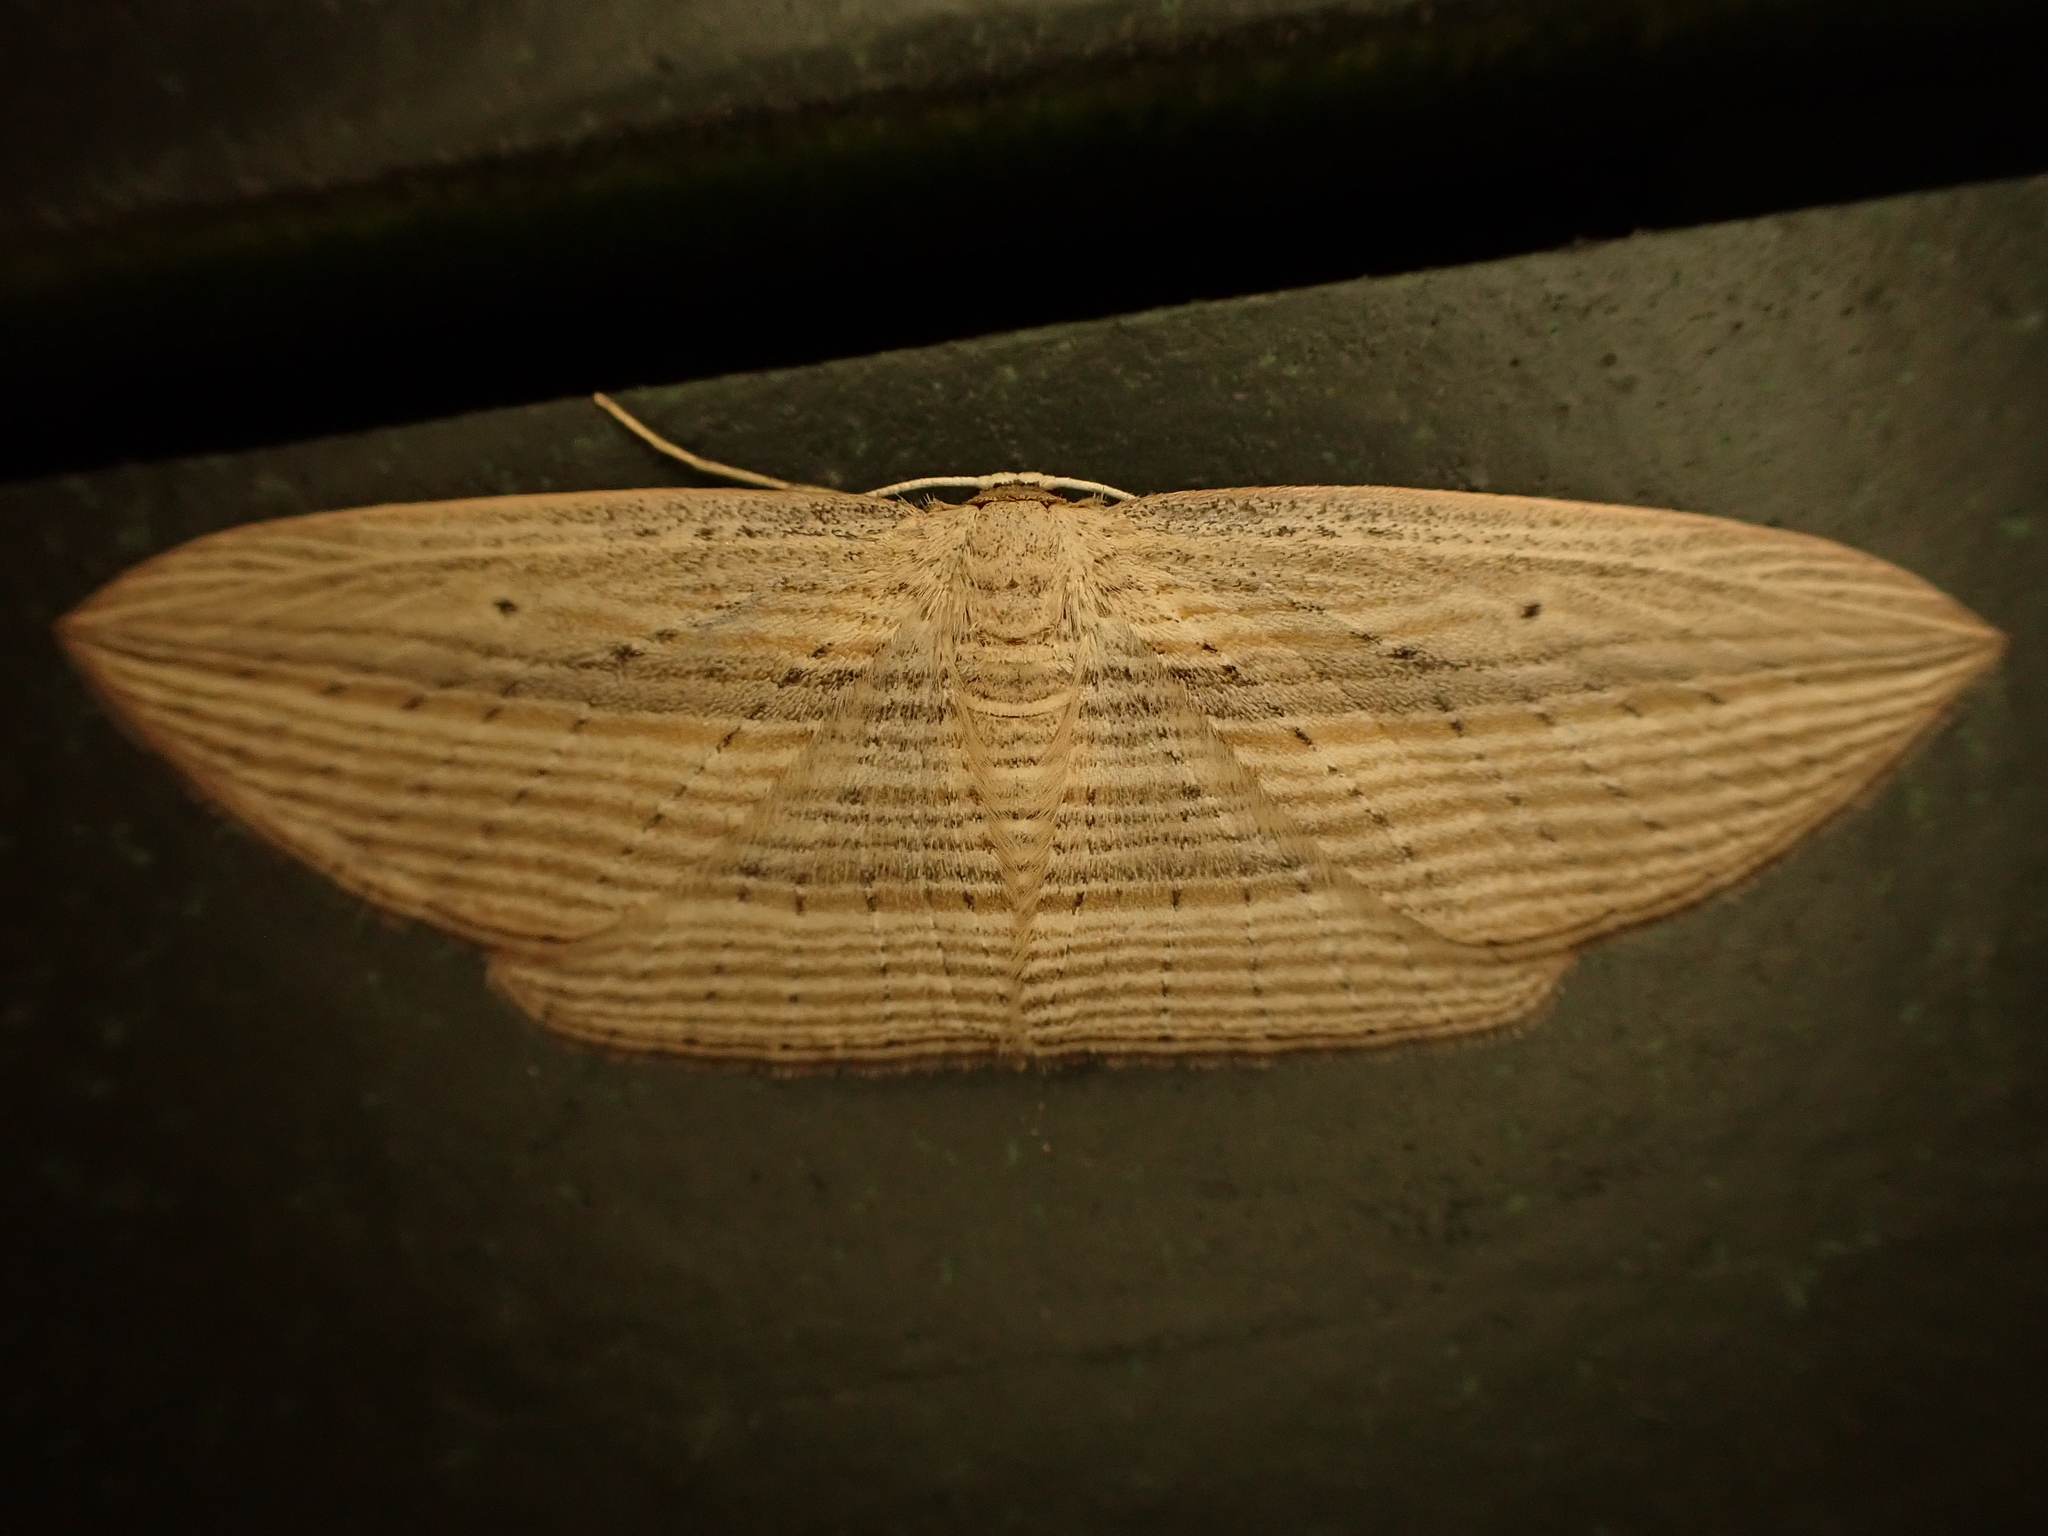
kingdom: Animalia
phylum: Arthropoda
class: Insecta
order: Lepidoptera
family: Geometridae
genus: Epiphryne
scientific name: Epiphryne verriculata
